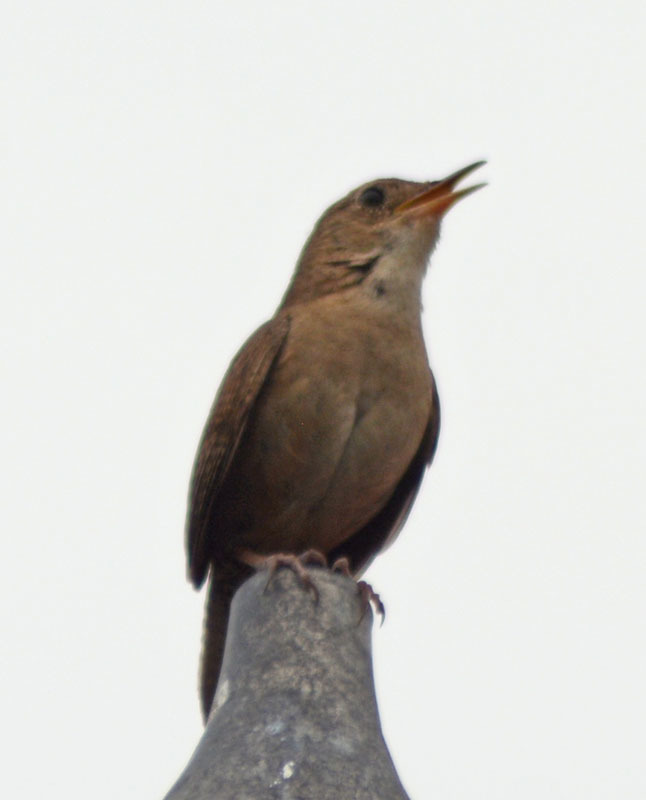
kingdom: Animalia
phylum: Chordata
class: Aves
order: Passeriformes
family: Troglodytidae
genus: Troglodytes
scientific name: Troglodytes aedon
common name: House wren
